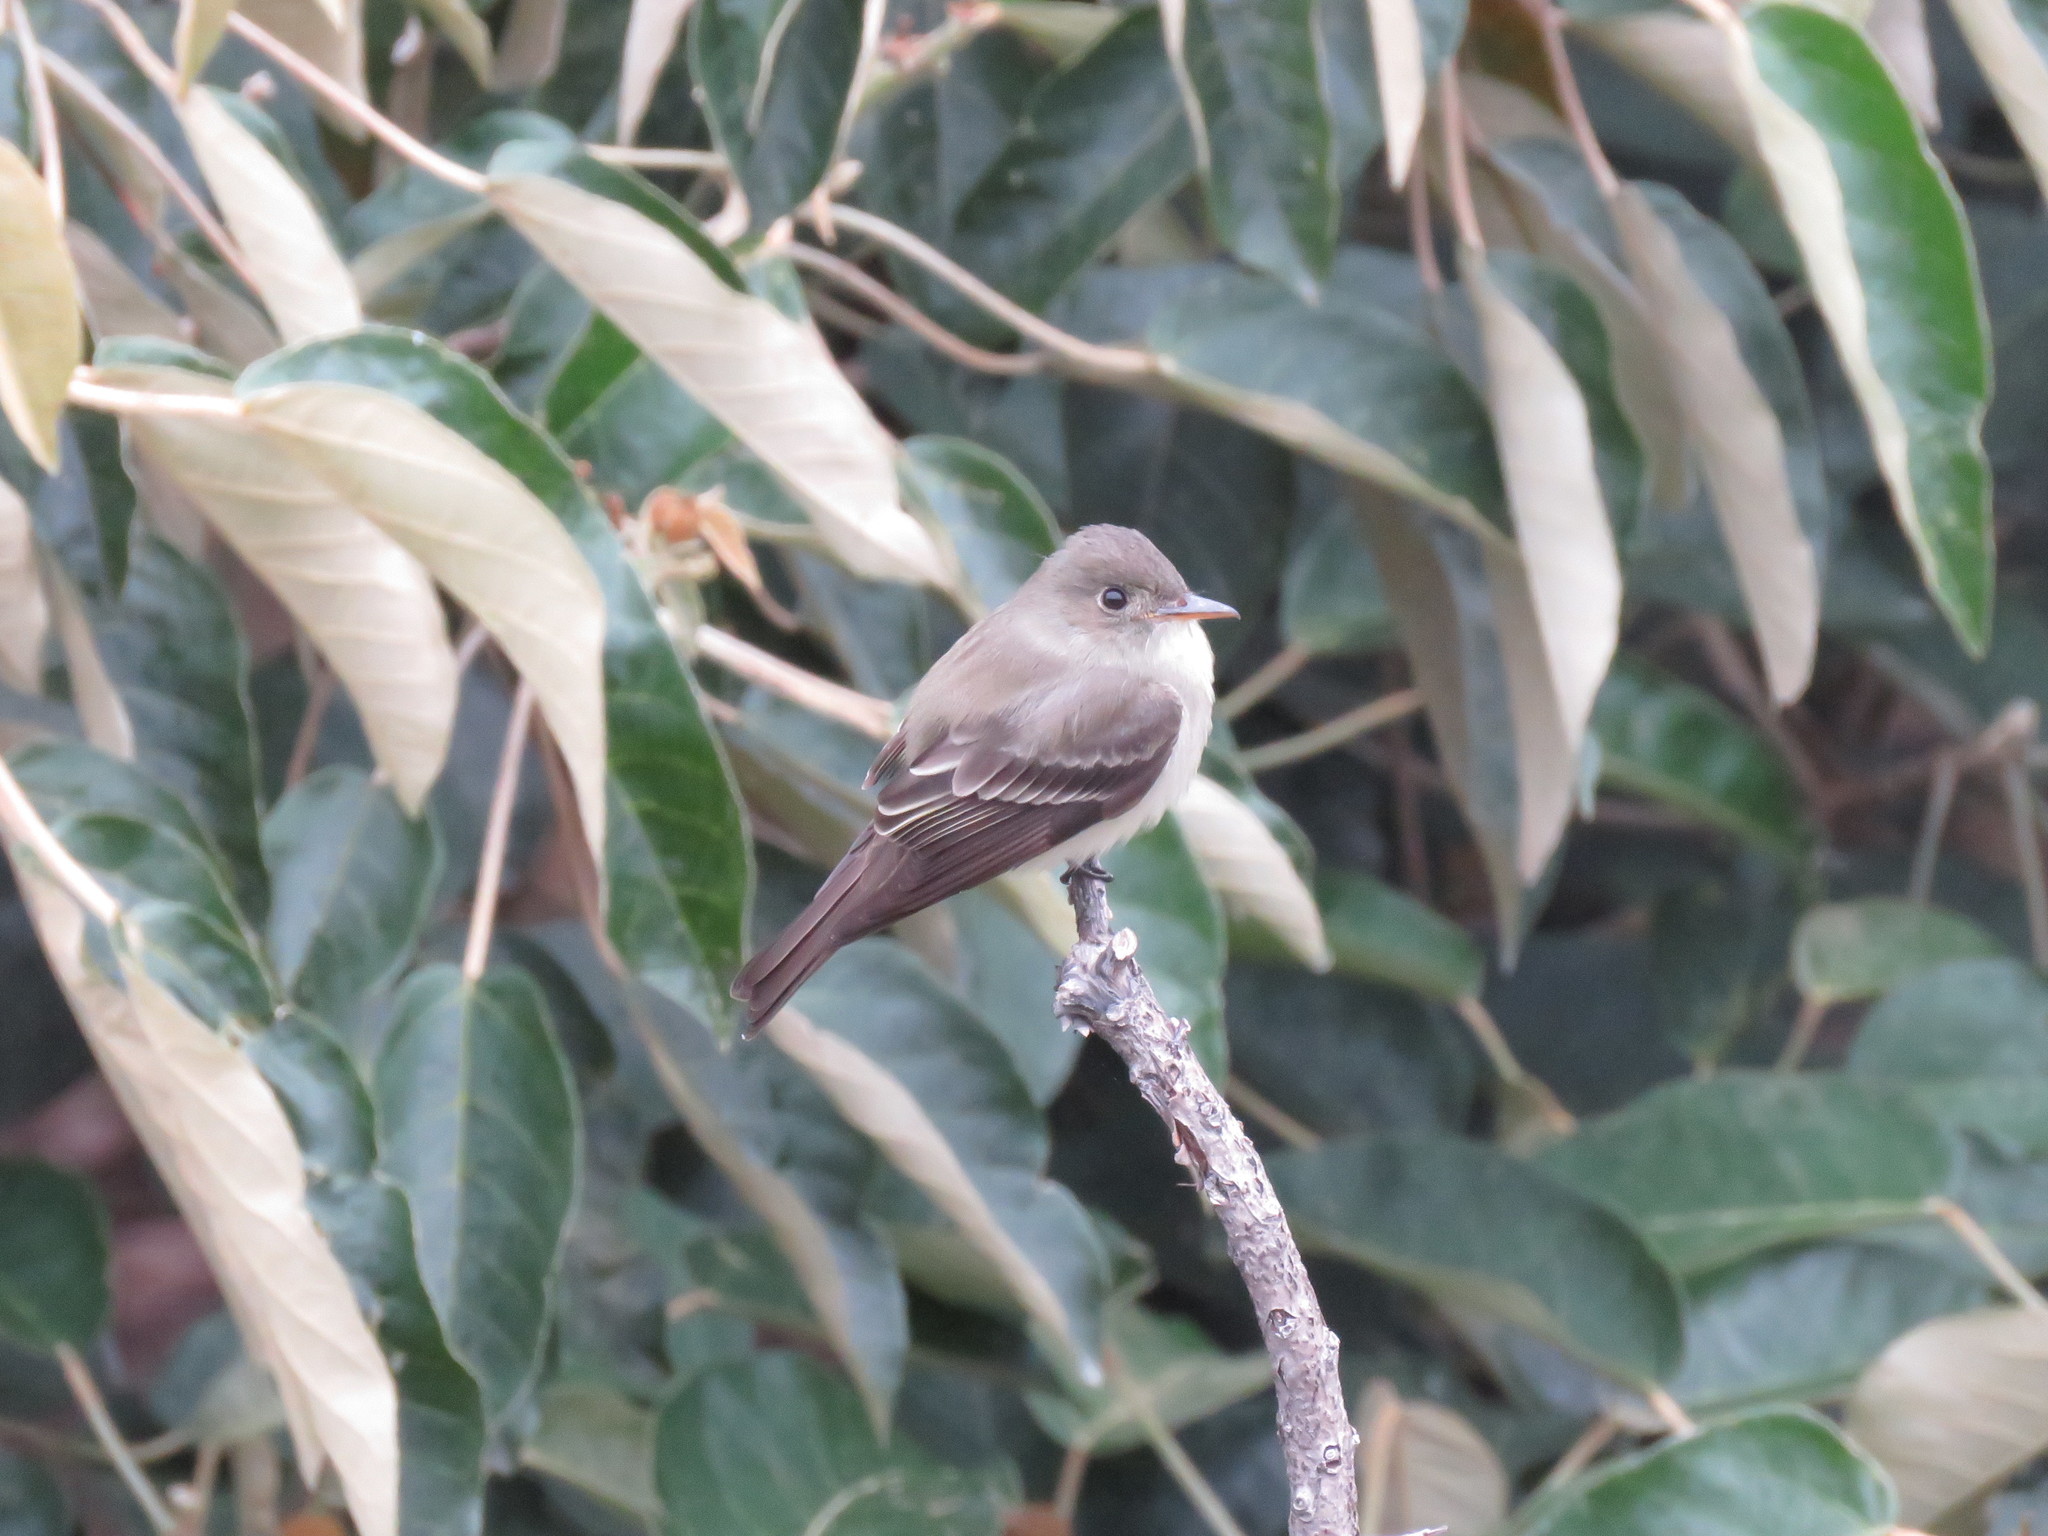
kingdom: Animalia
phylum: Chordata
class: Aves
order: Passeriformes
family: Tyrannidae
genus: Contopus
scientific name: Contopus virens
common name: Eastern wood-pewee
